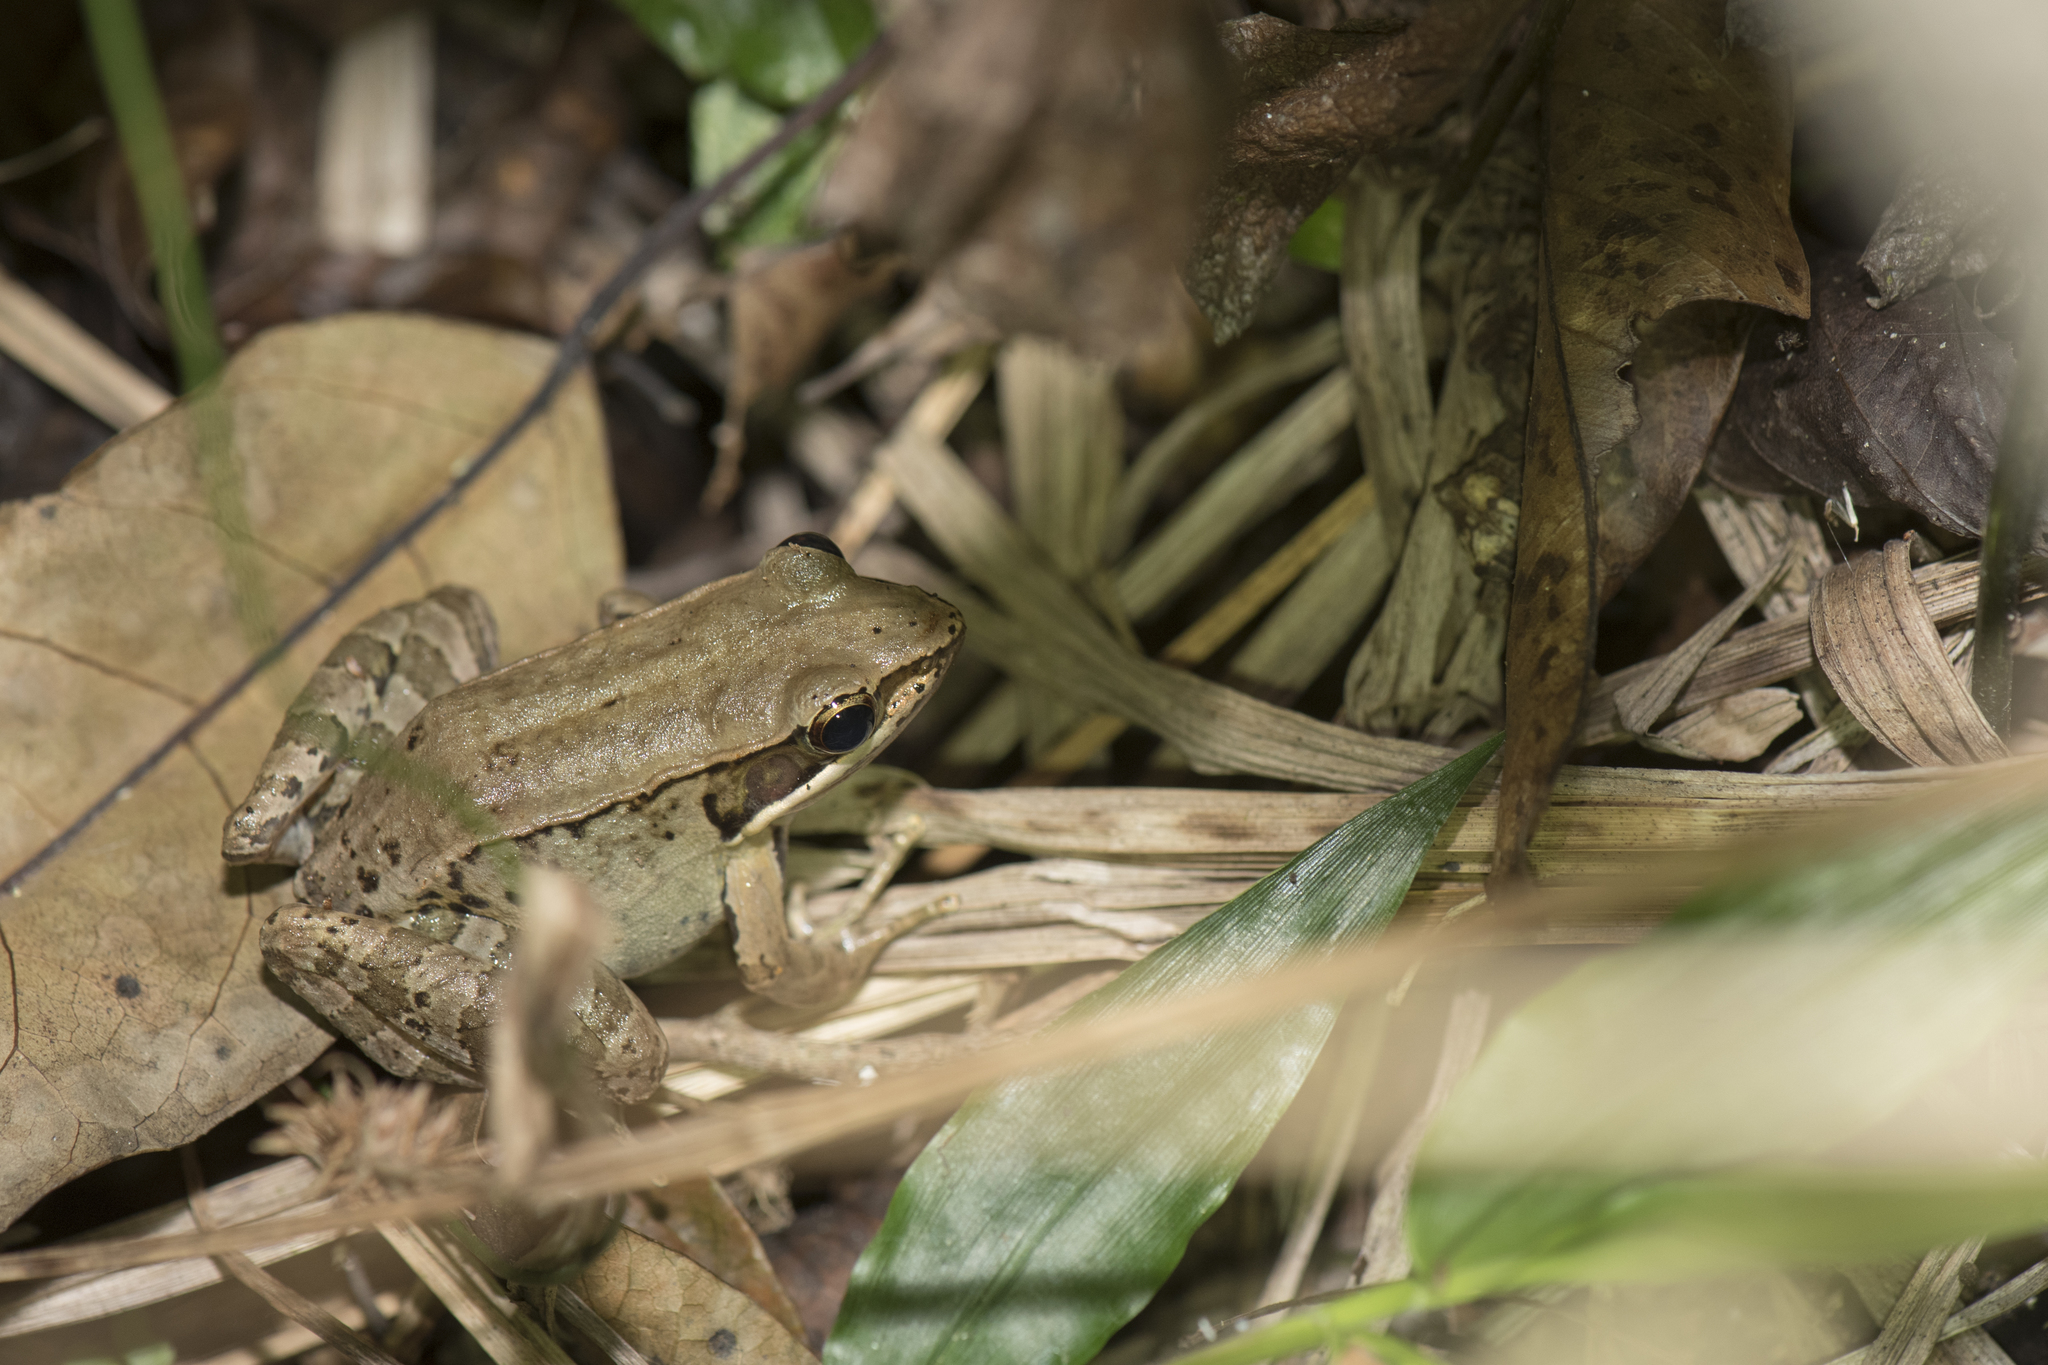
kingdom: Animalia
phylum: Chordata
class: Amphibia
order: Anura
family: Ranidae
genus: Nidirana
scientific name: Nidirana adenopleura
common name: Olive frog
